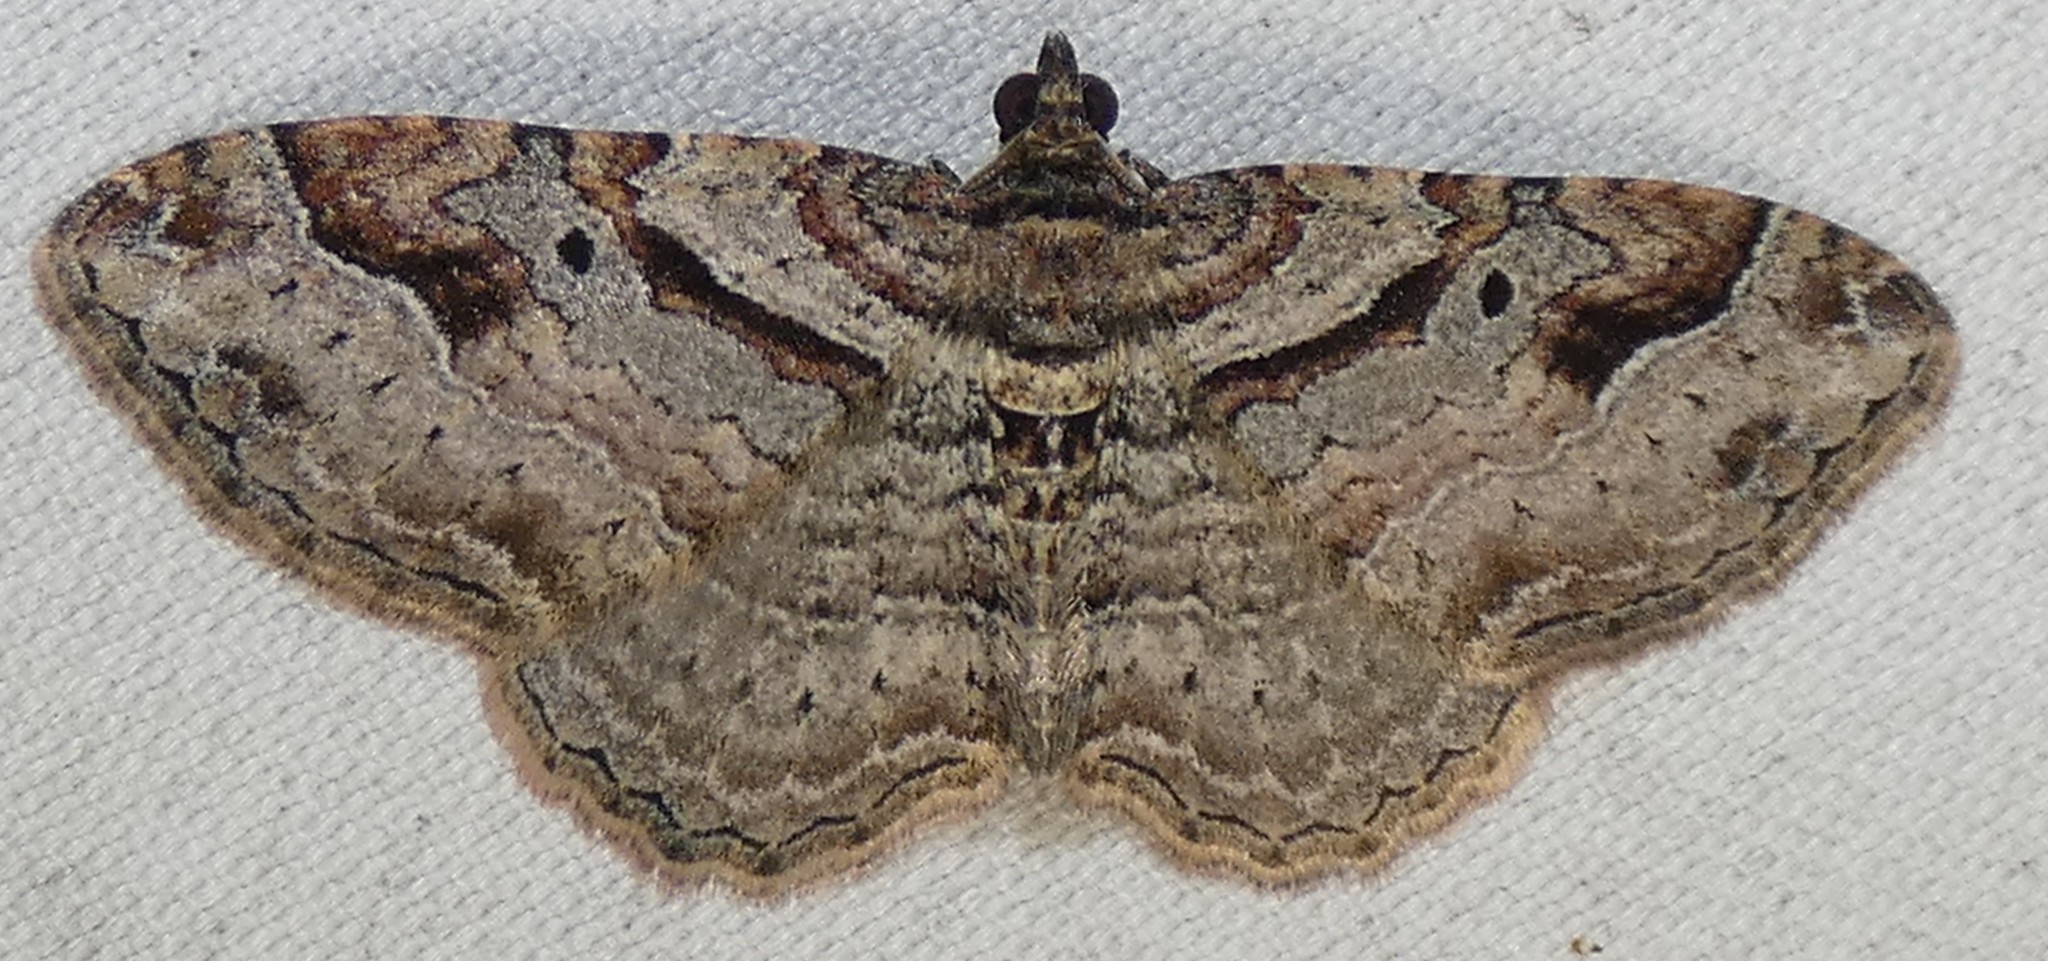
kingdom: Animalia
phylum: Arthropoda
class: Insecta
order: Lepidoptera
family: Geometridae
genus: Costaconvexa
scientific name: Costaconvexa centrostrigaria
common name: Bent-line carpet
